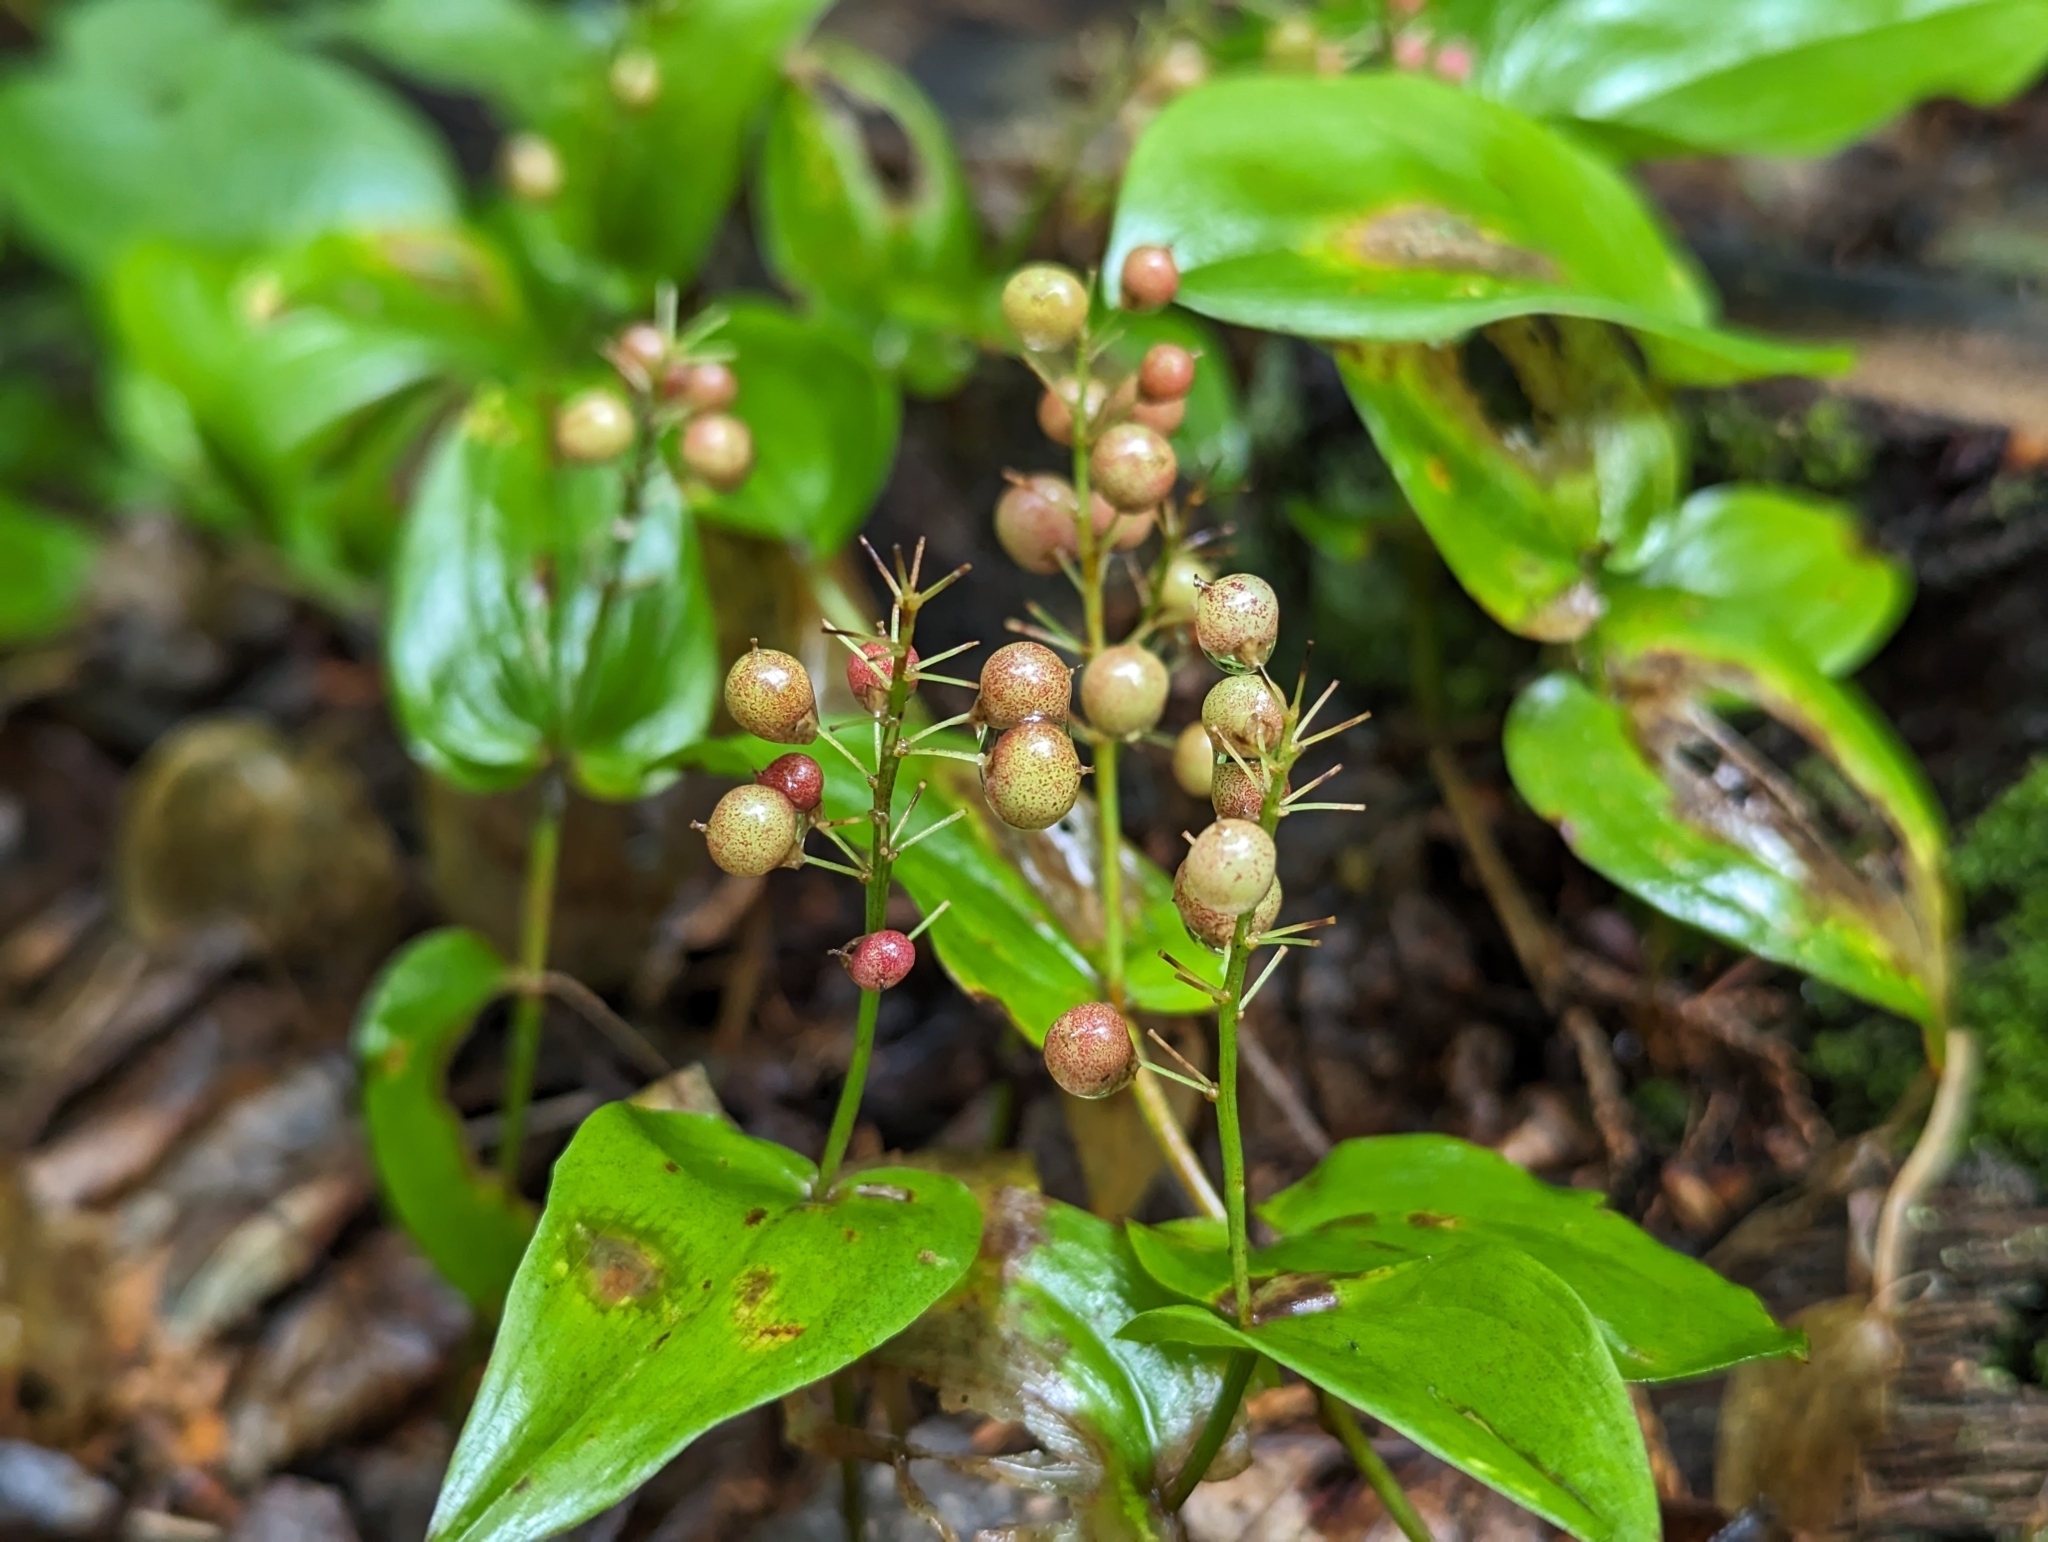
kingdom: Plantae
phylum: Tracheophyta
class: Liliopsida
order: Asparagales
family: Asparagaceae
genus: Maianthemum
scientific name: Maianthemum canadense
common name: False lily-of-the-valley
